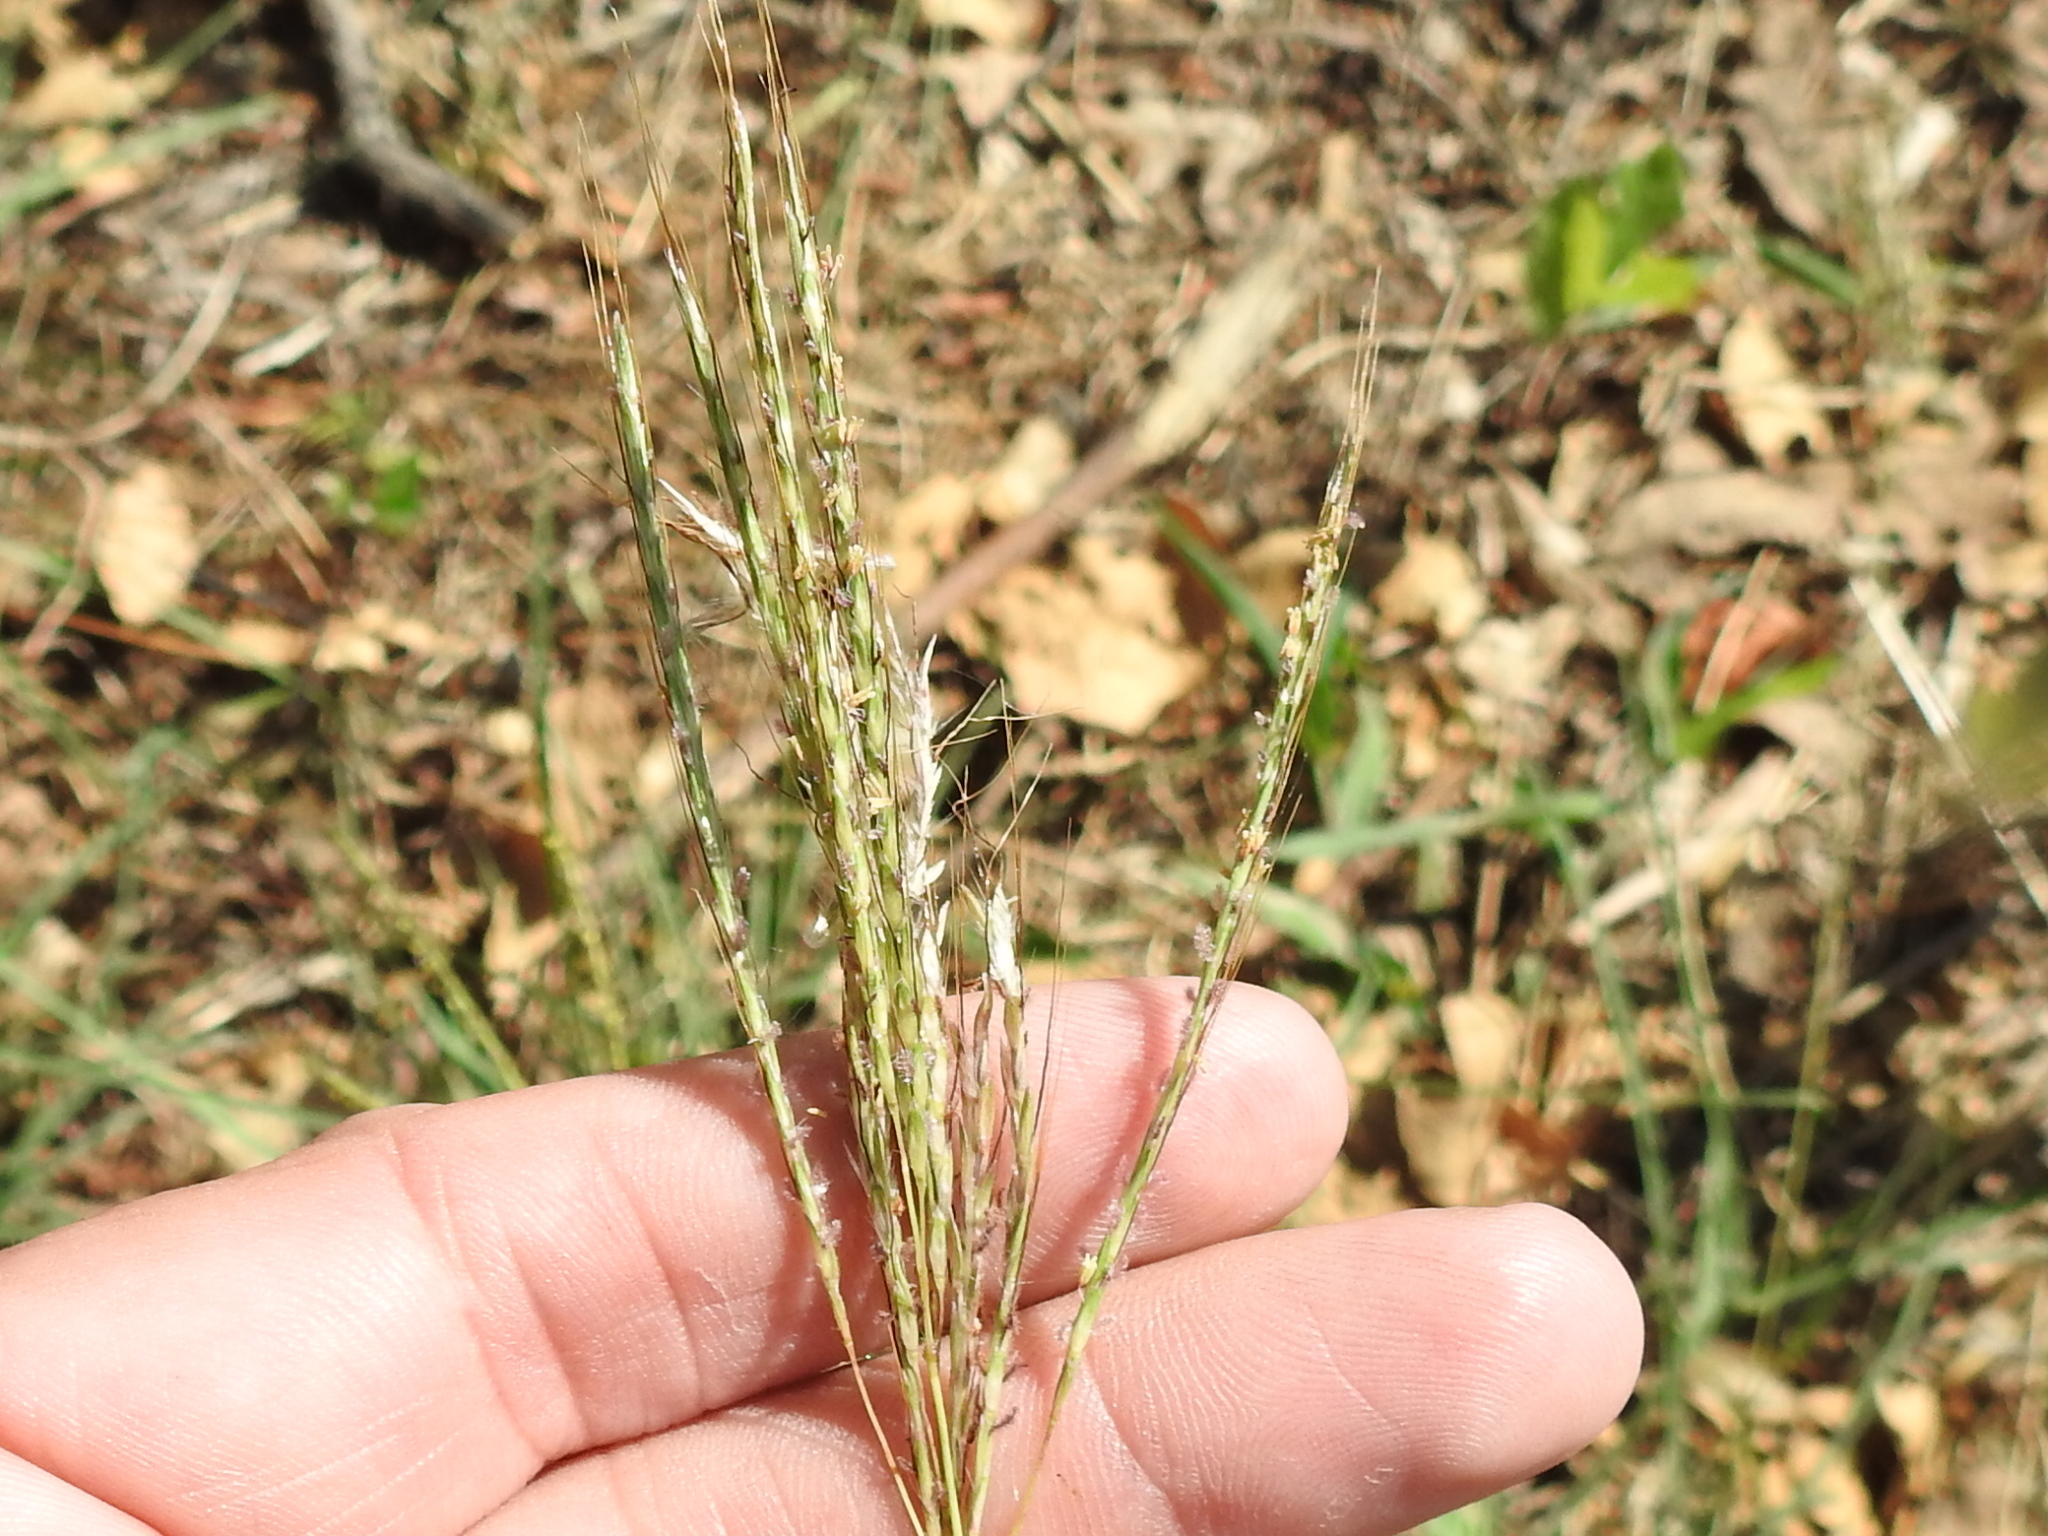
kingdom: Plantae
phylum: Tracheophyta
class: Liliopsida
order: Poales
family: Poaceae
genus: Bothriochloa
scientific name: Bothriochloa ischaemum
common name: Yellow bluestem
